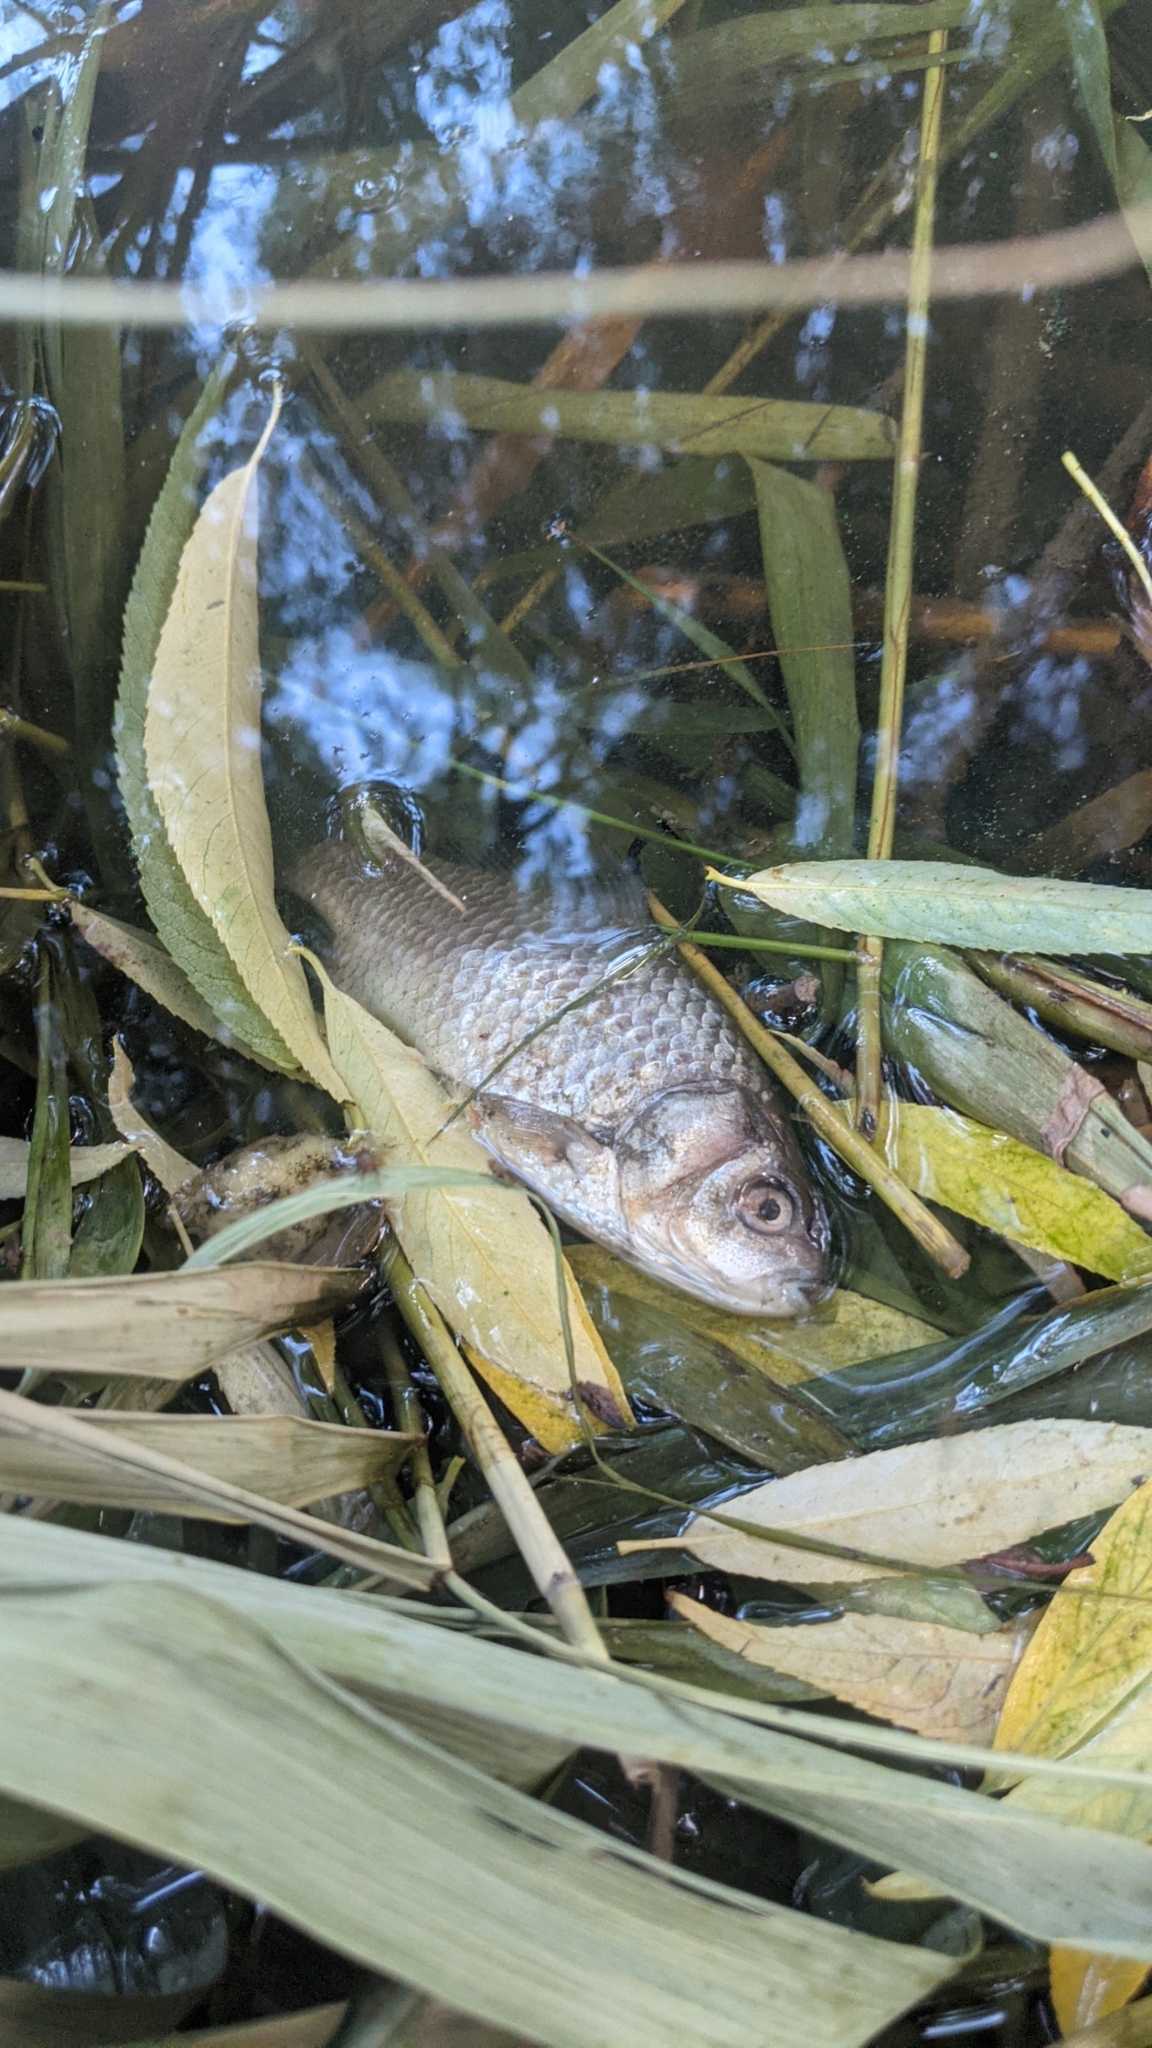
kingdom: Animalia
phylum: Chordata
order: Cypriniformes
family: Cyprinidae
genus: Carassius
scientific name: Carassius gibelio
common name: Prussian carp
